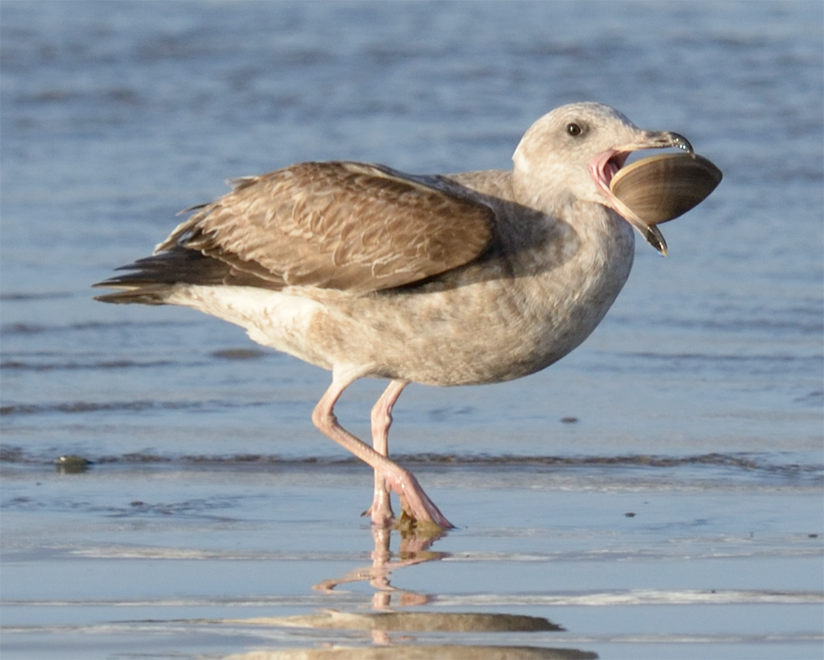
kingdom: Animalia
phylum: Mollusca
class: Bivalvia
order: Venerida
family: Veneridae
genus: Tivela
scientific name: Tivela stultorum
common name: Pismo clam
